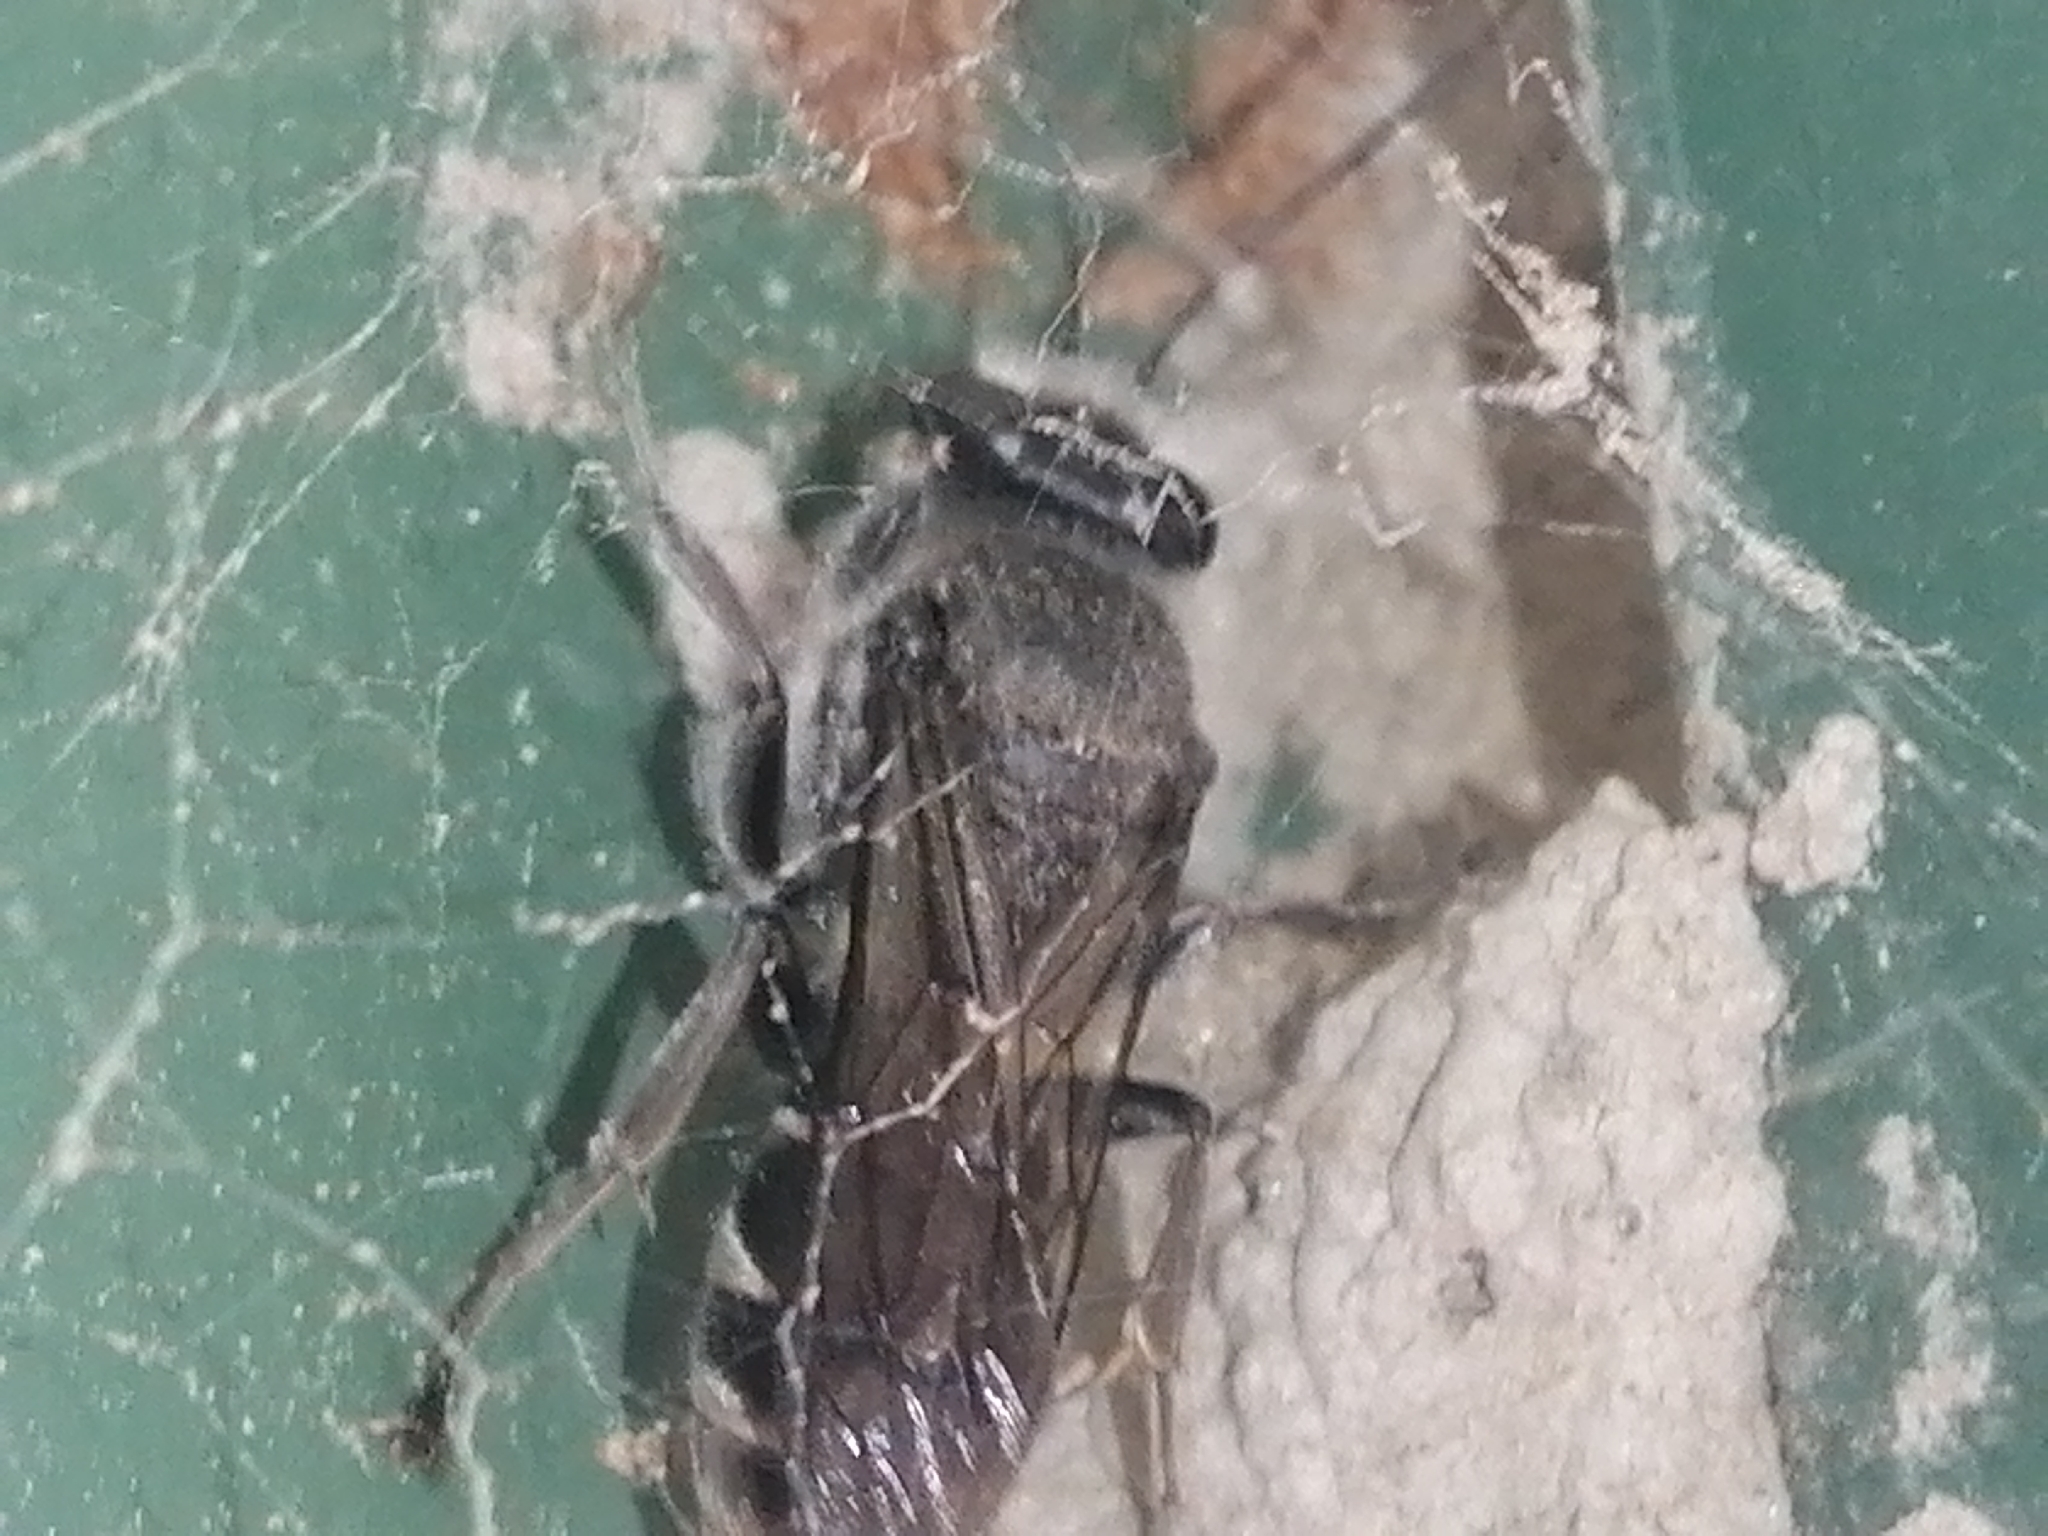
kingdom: Animalia
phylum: Arthropoda
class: Insecta
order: Hymenoptera
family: Crabronidae
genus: Pison
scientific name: Pison spinolae
